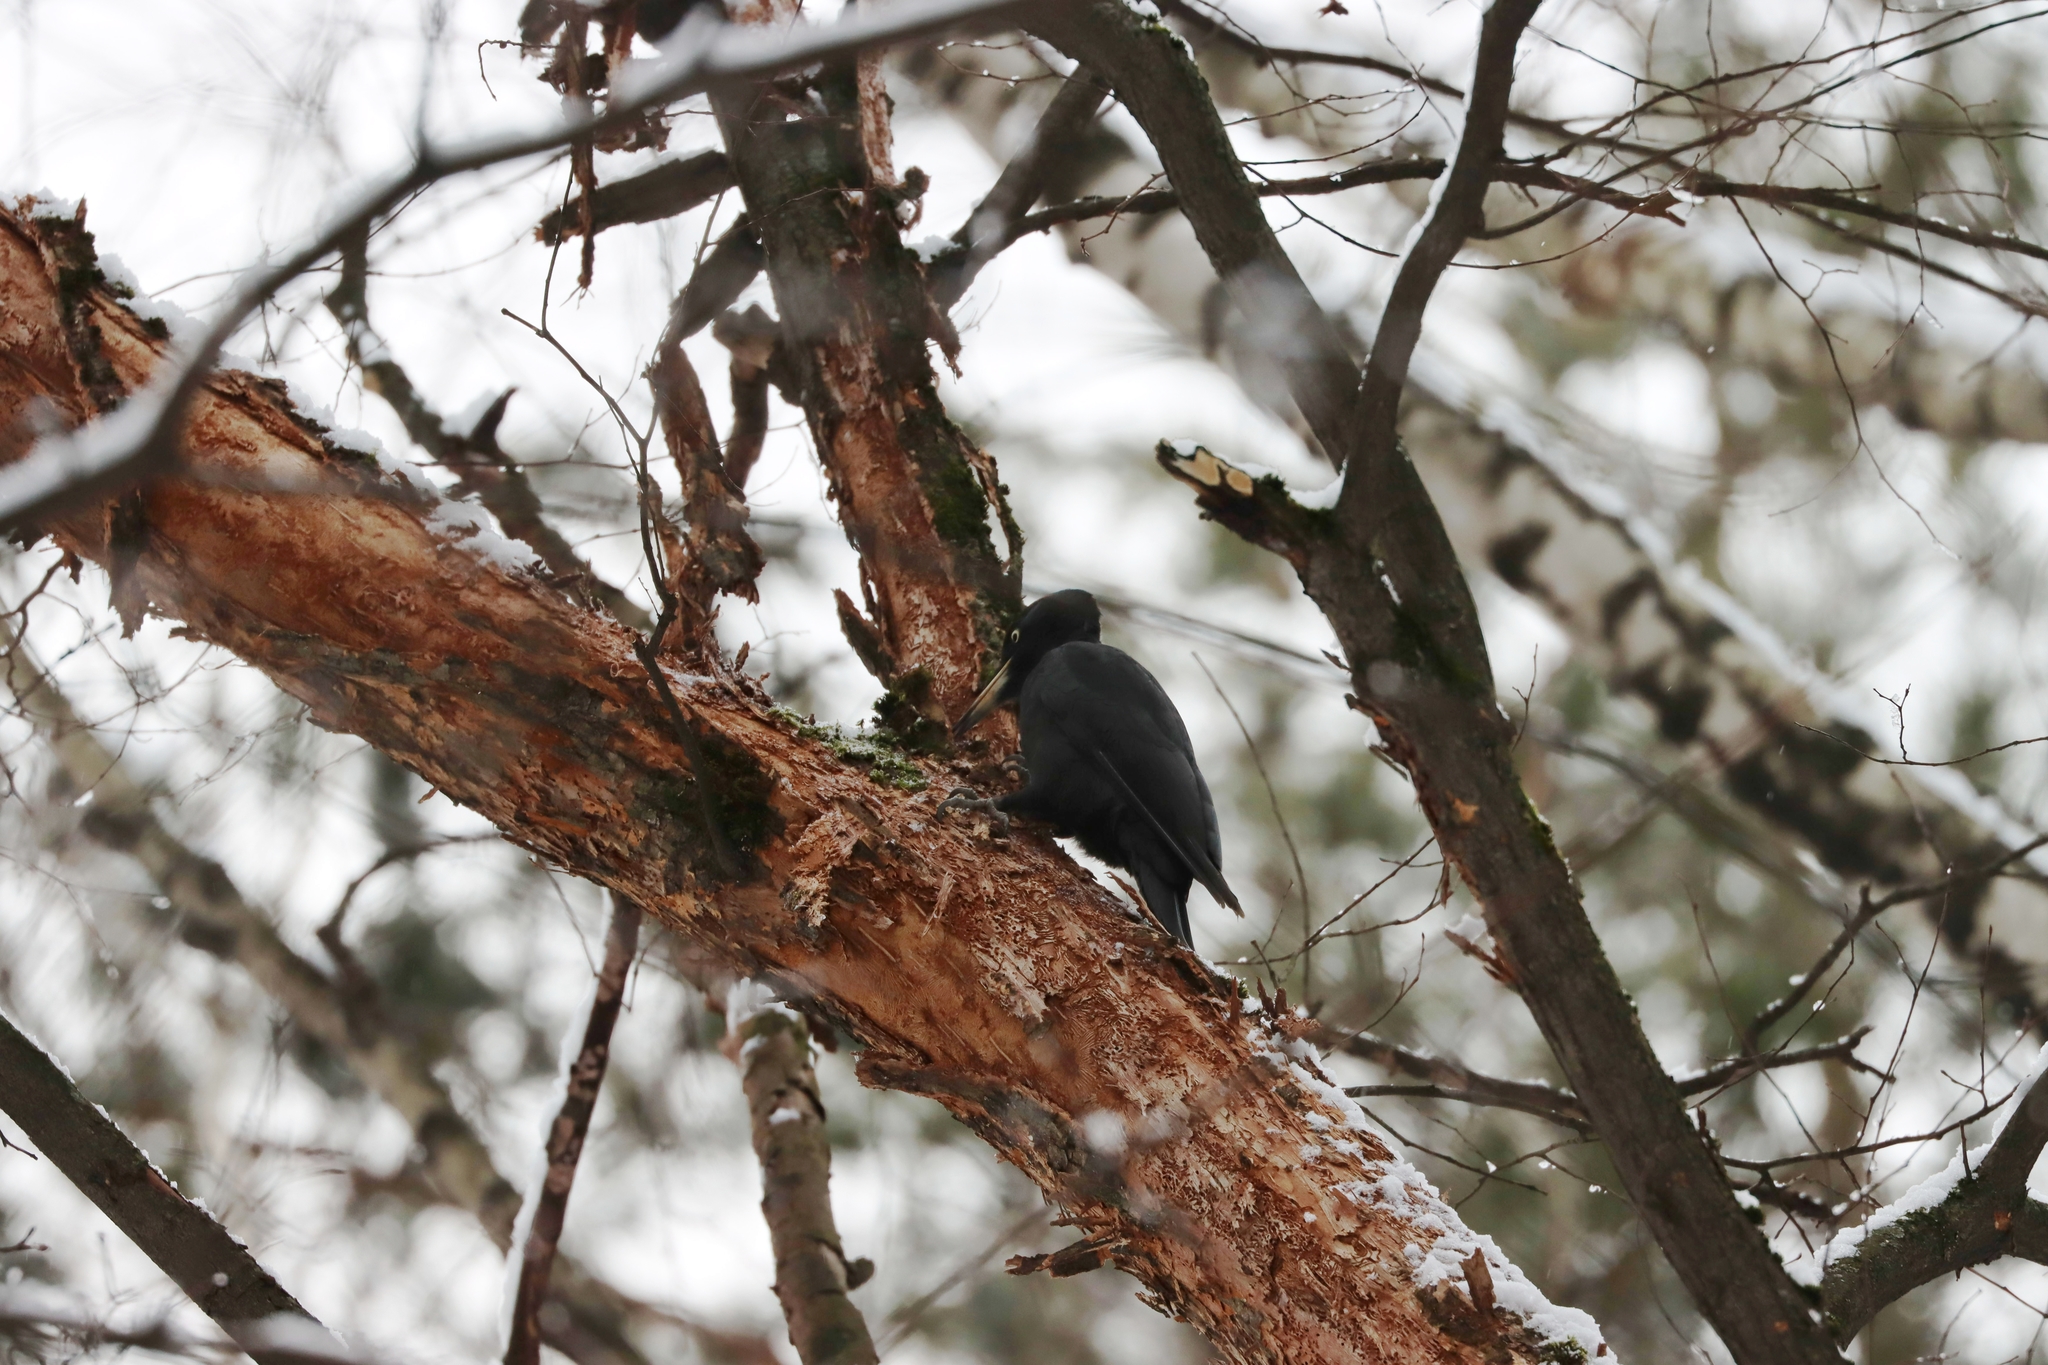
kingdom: Animalia
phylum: Chordata
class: Aves
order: Piciformes
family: Picidae
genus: Dryocopus
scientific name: Dryocopus martius
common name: Black woodpecker
